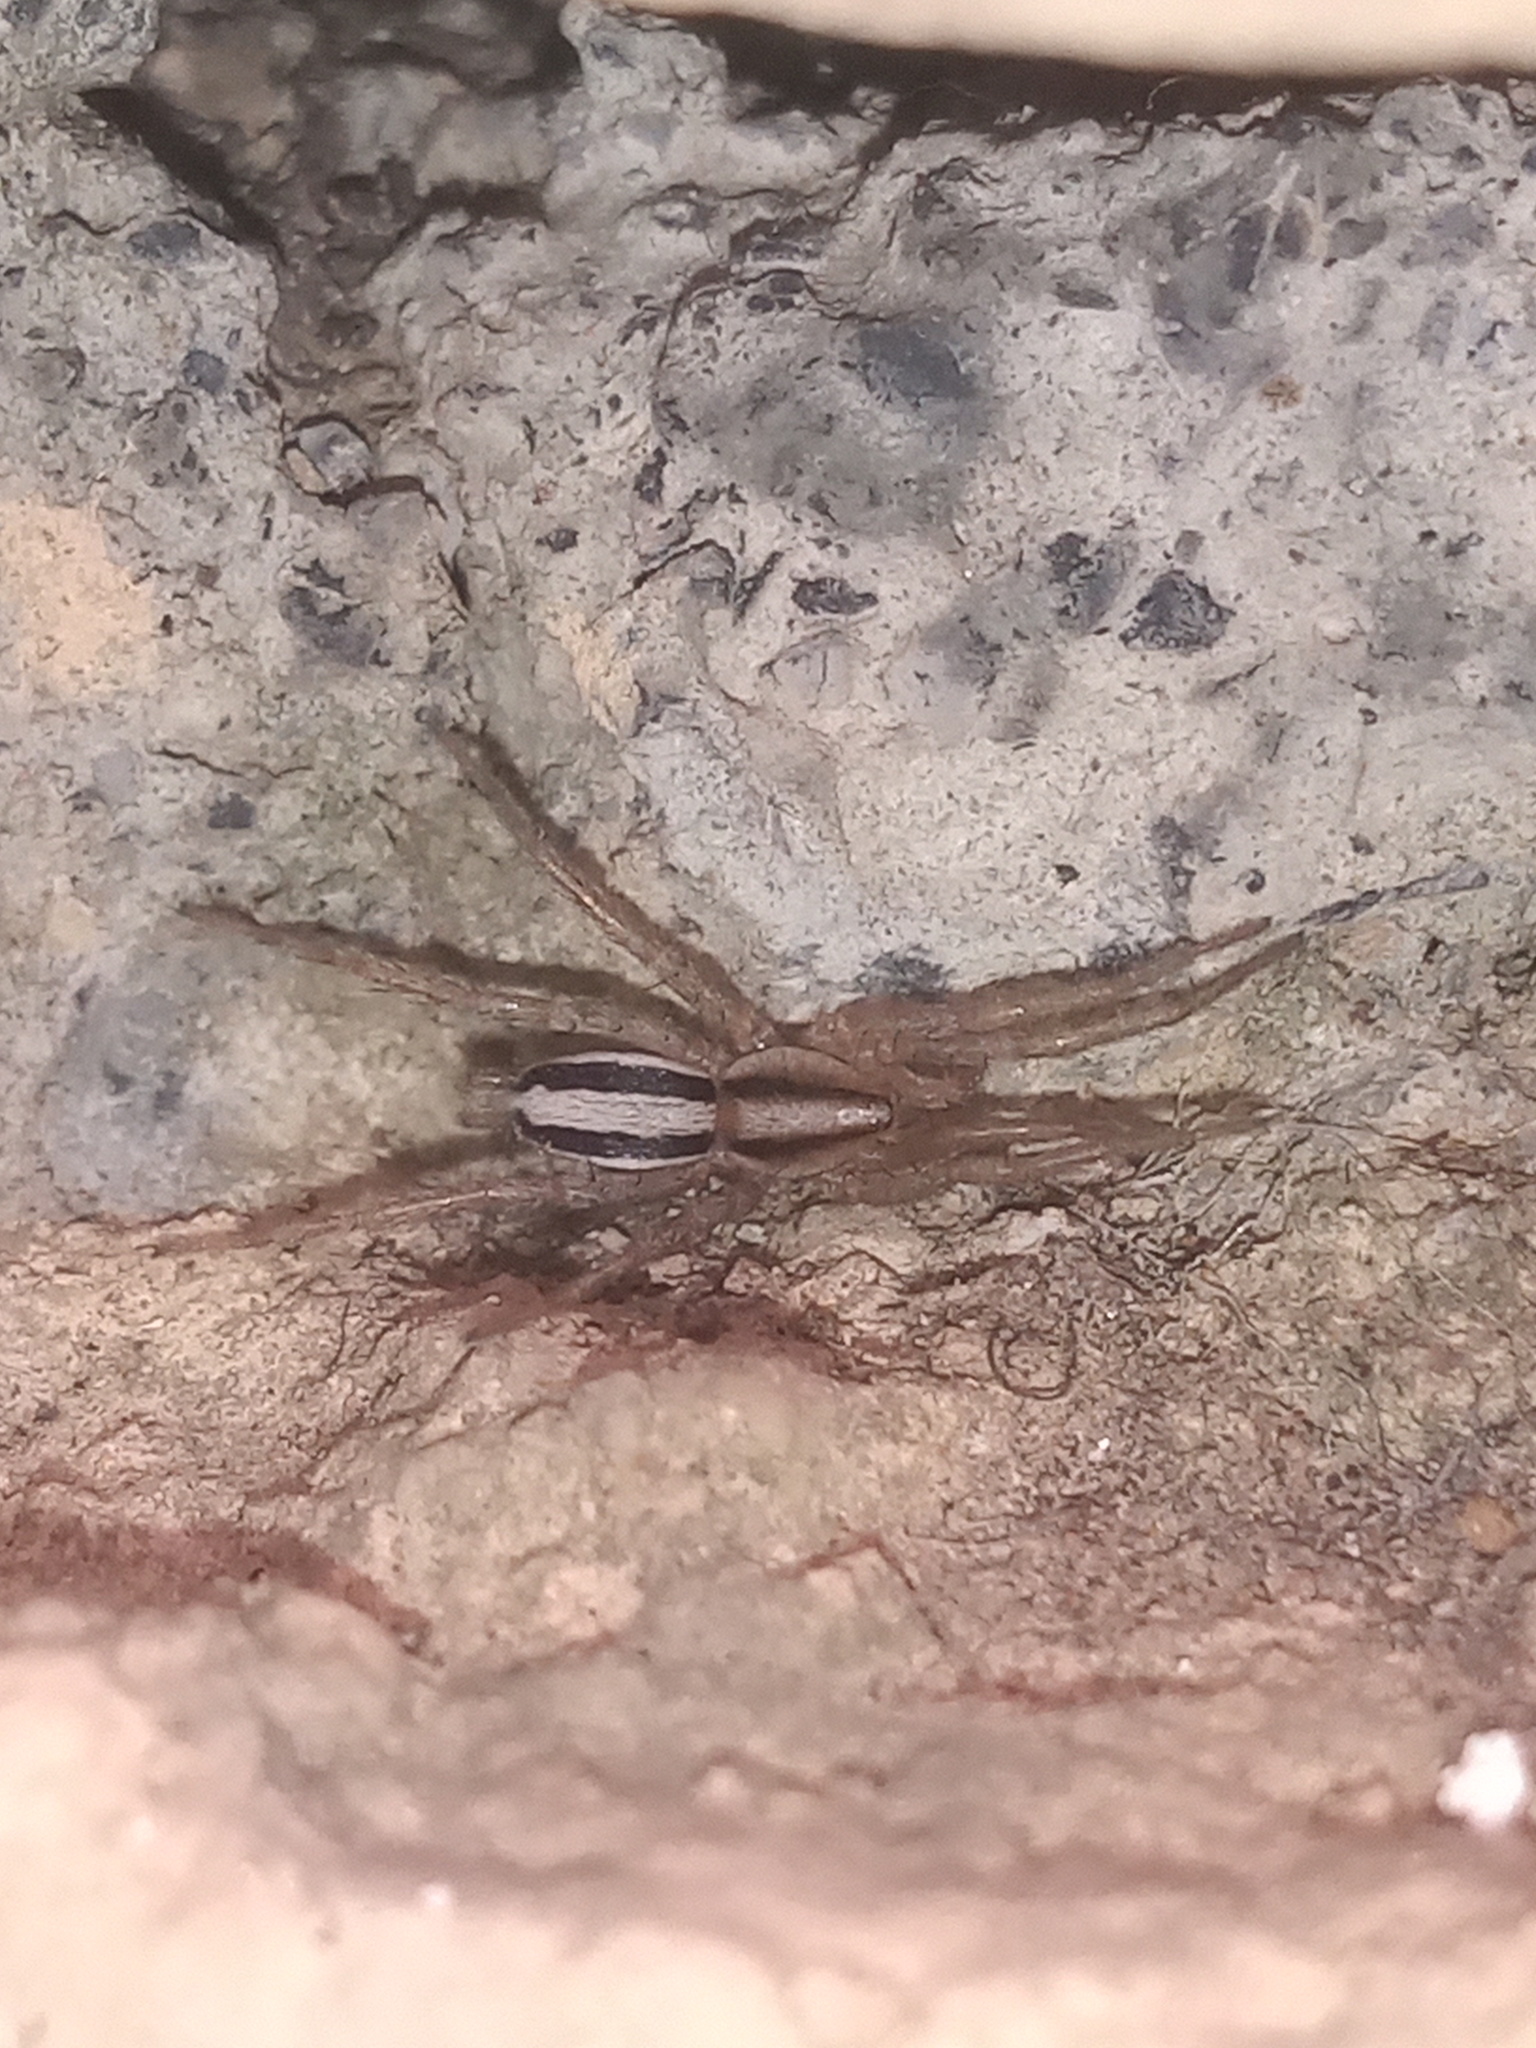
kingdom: Animalia
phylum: Arthropoda
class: Arachnida
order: Araneae
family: Gnaphosidae
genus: Cesonia
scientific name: Cesonia bilineata
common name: Two-lined stealthy ground spider
